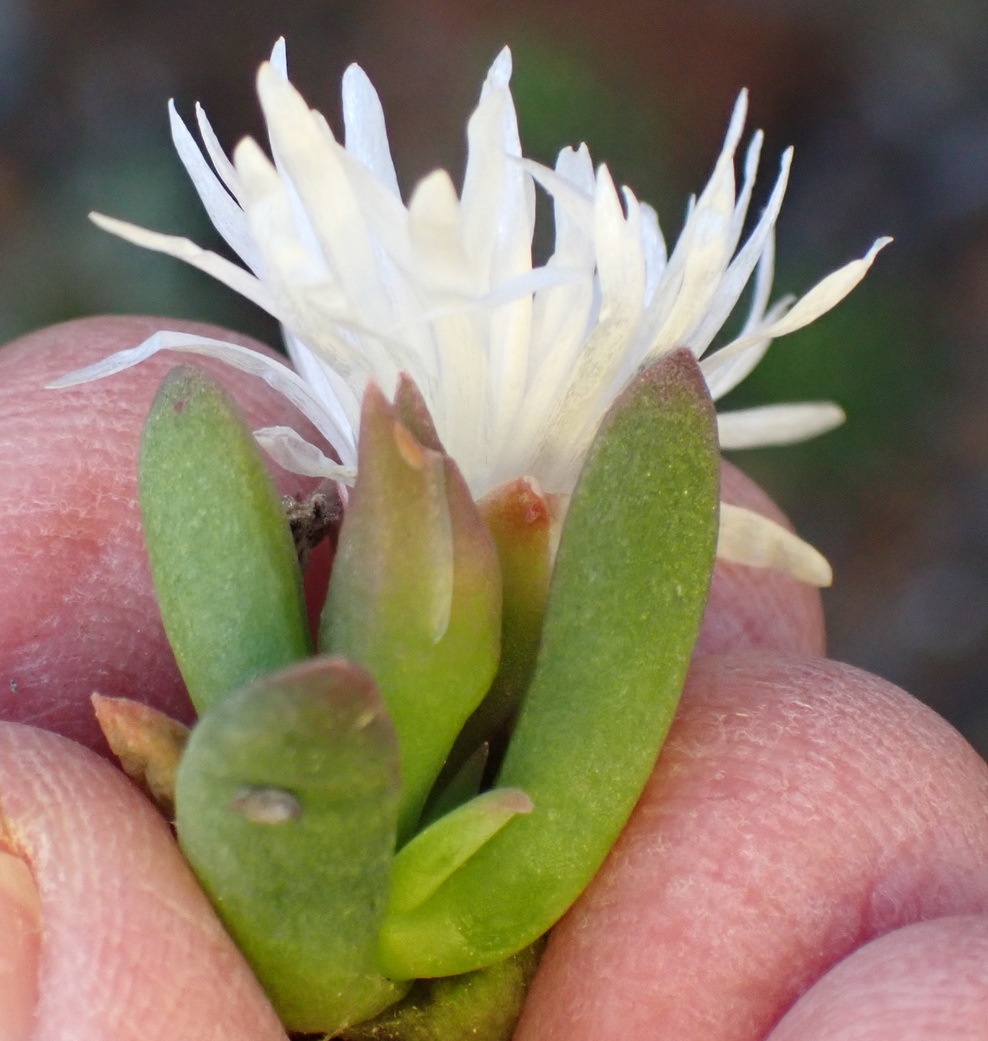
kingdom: Plantae
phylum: Tracheophyta
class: Magnoliopsida
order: Caryophyllales
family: Aizoaceae
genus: Delosperma
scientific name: Delosperma esterhuyseniae
